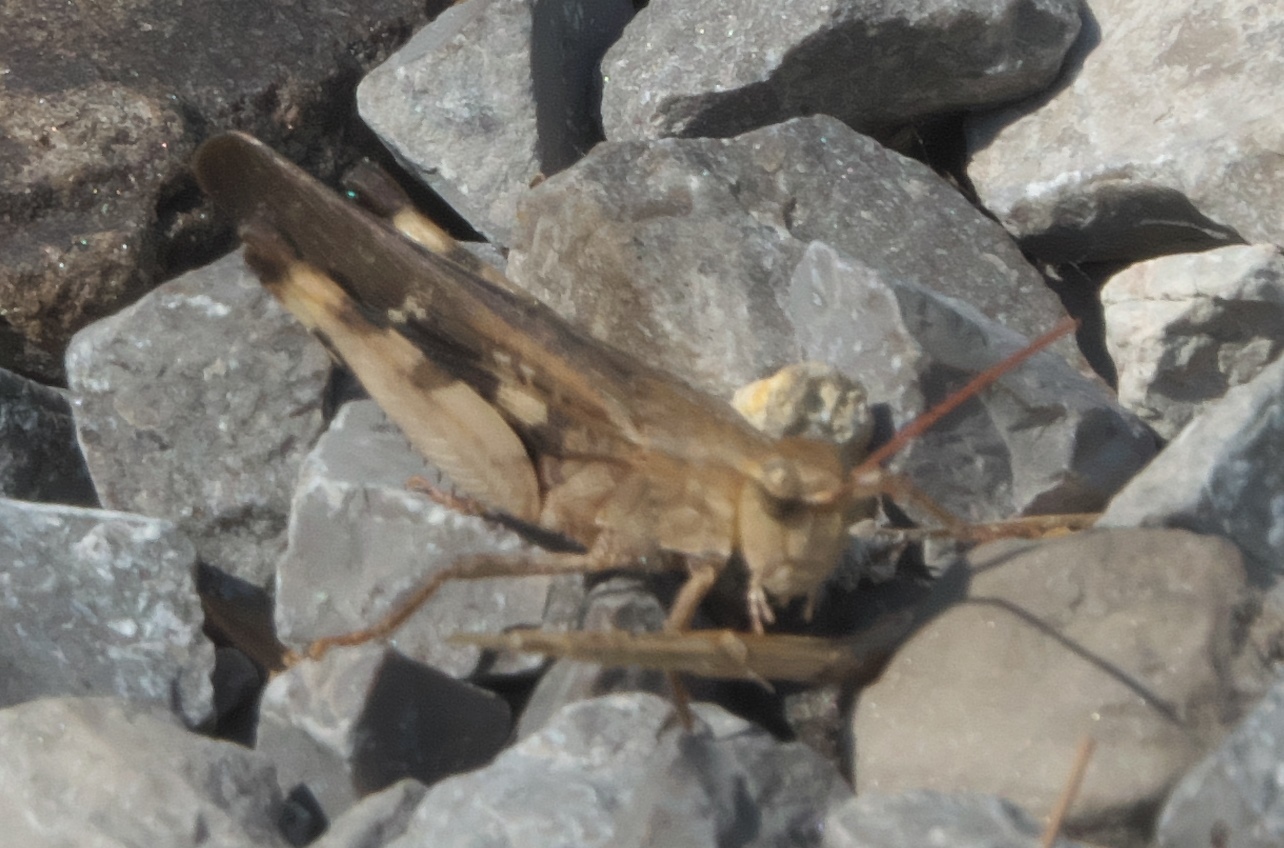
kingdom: Animalia
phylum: Arthropoda
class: Insecta
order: Orthoptera
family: Acrididae
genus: Chortophaga
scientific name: Chortophaga viridifasciata
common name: Green-striped grasshopper
